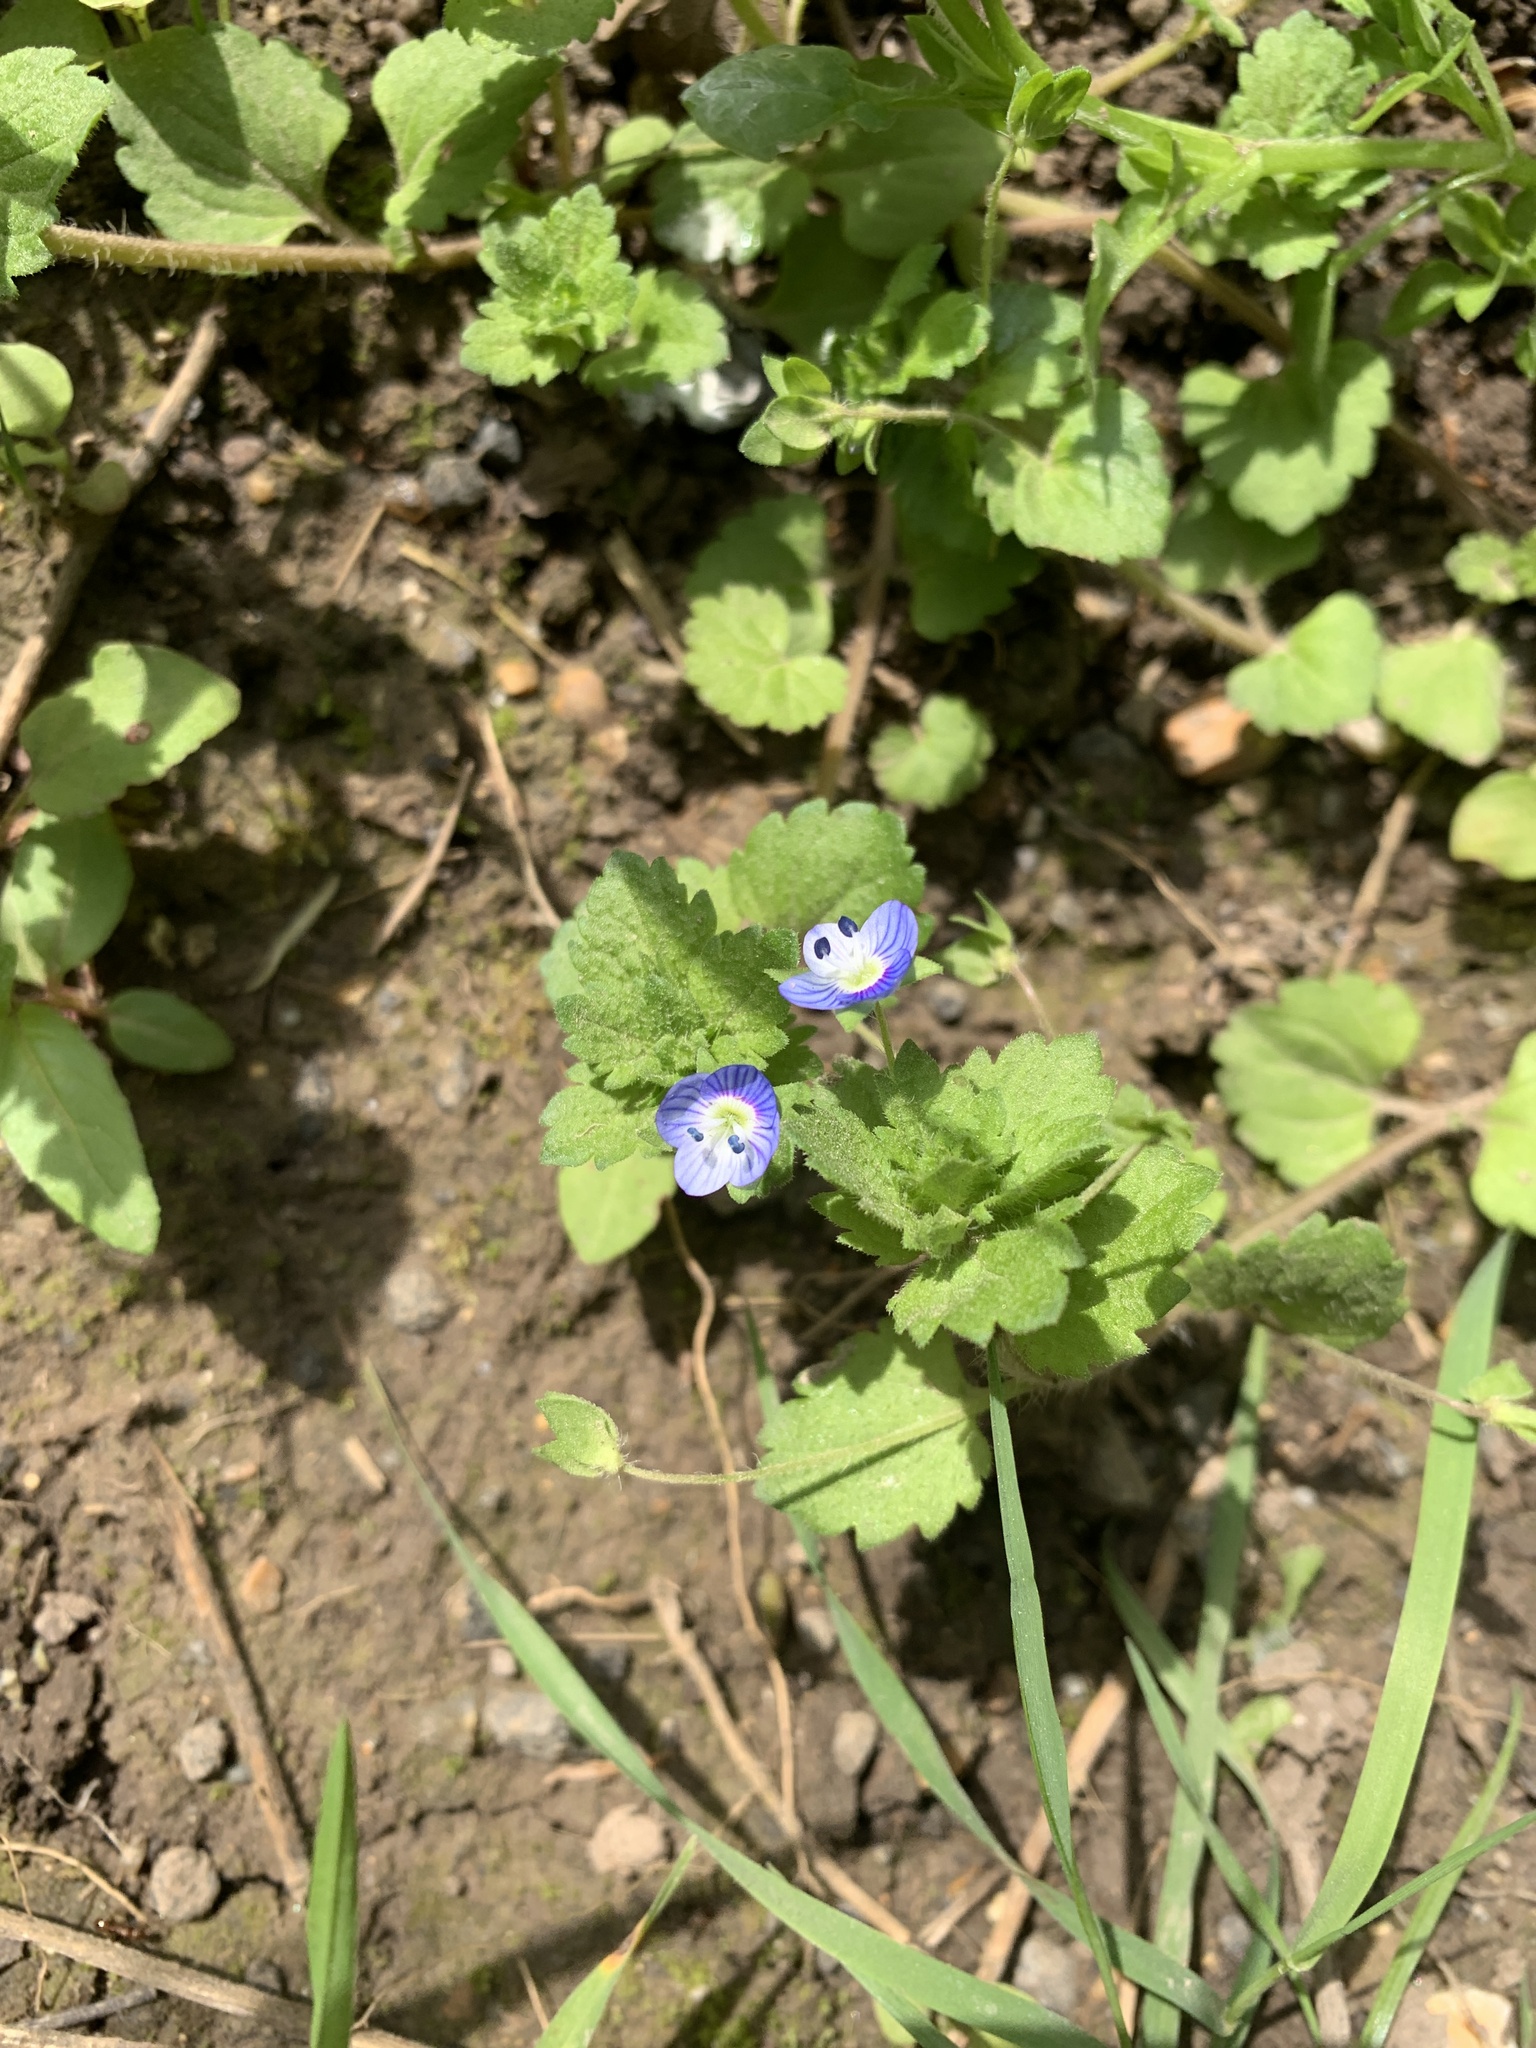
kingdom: Plantae
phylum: Tracheophyta
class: Magnoliopsida
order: Lamiales
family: Plantaginaceae
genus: Veronica
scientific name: Veronica persica
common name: Common field-speedwell
